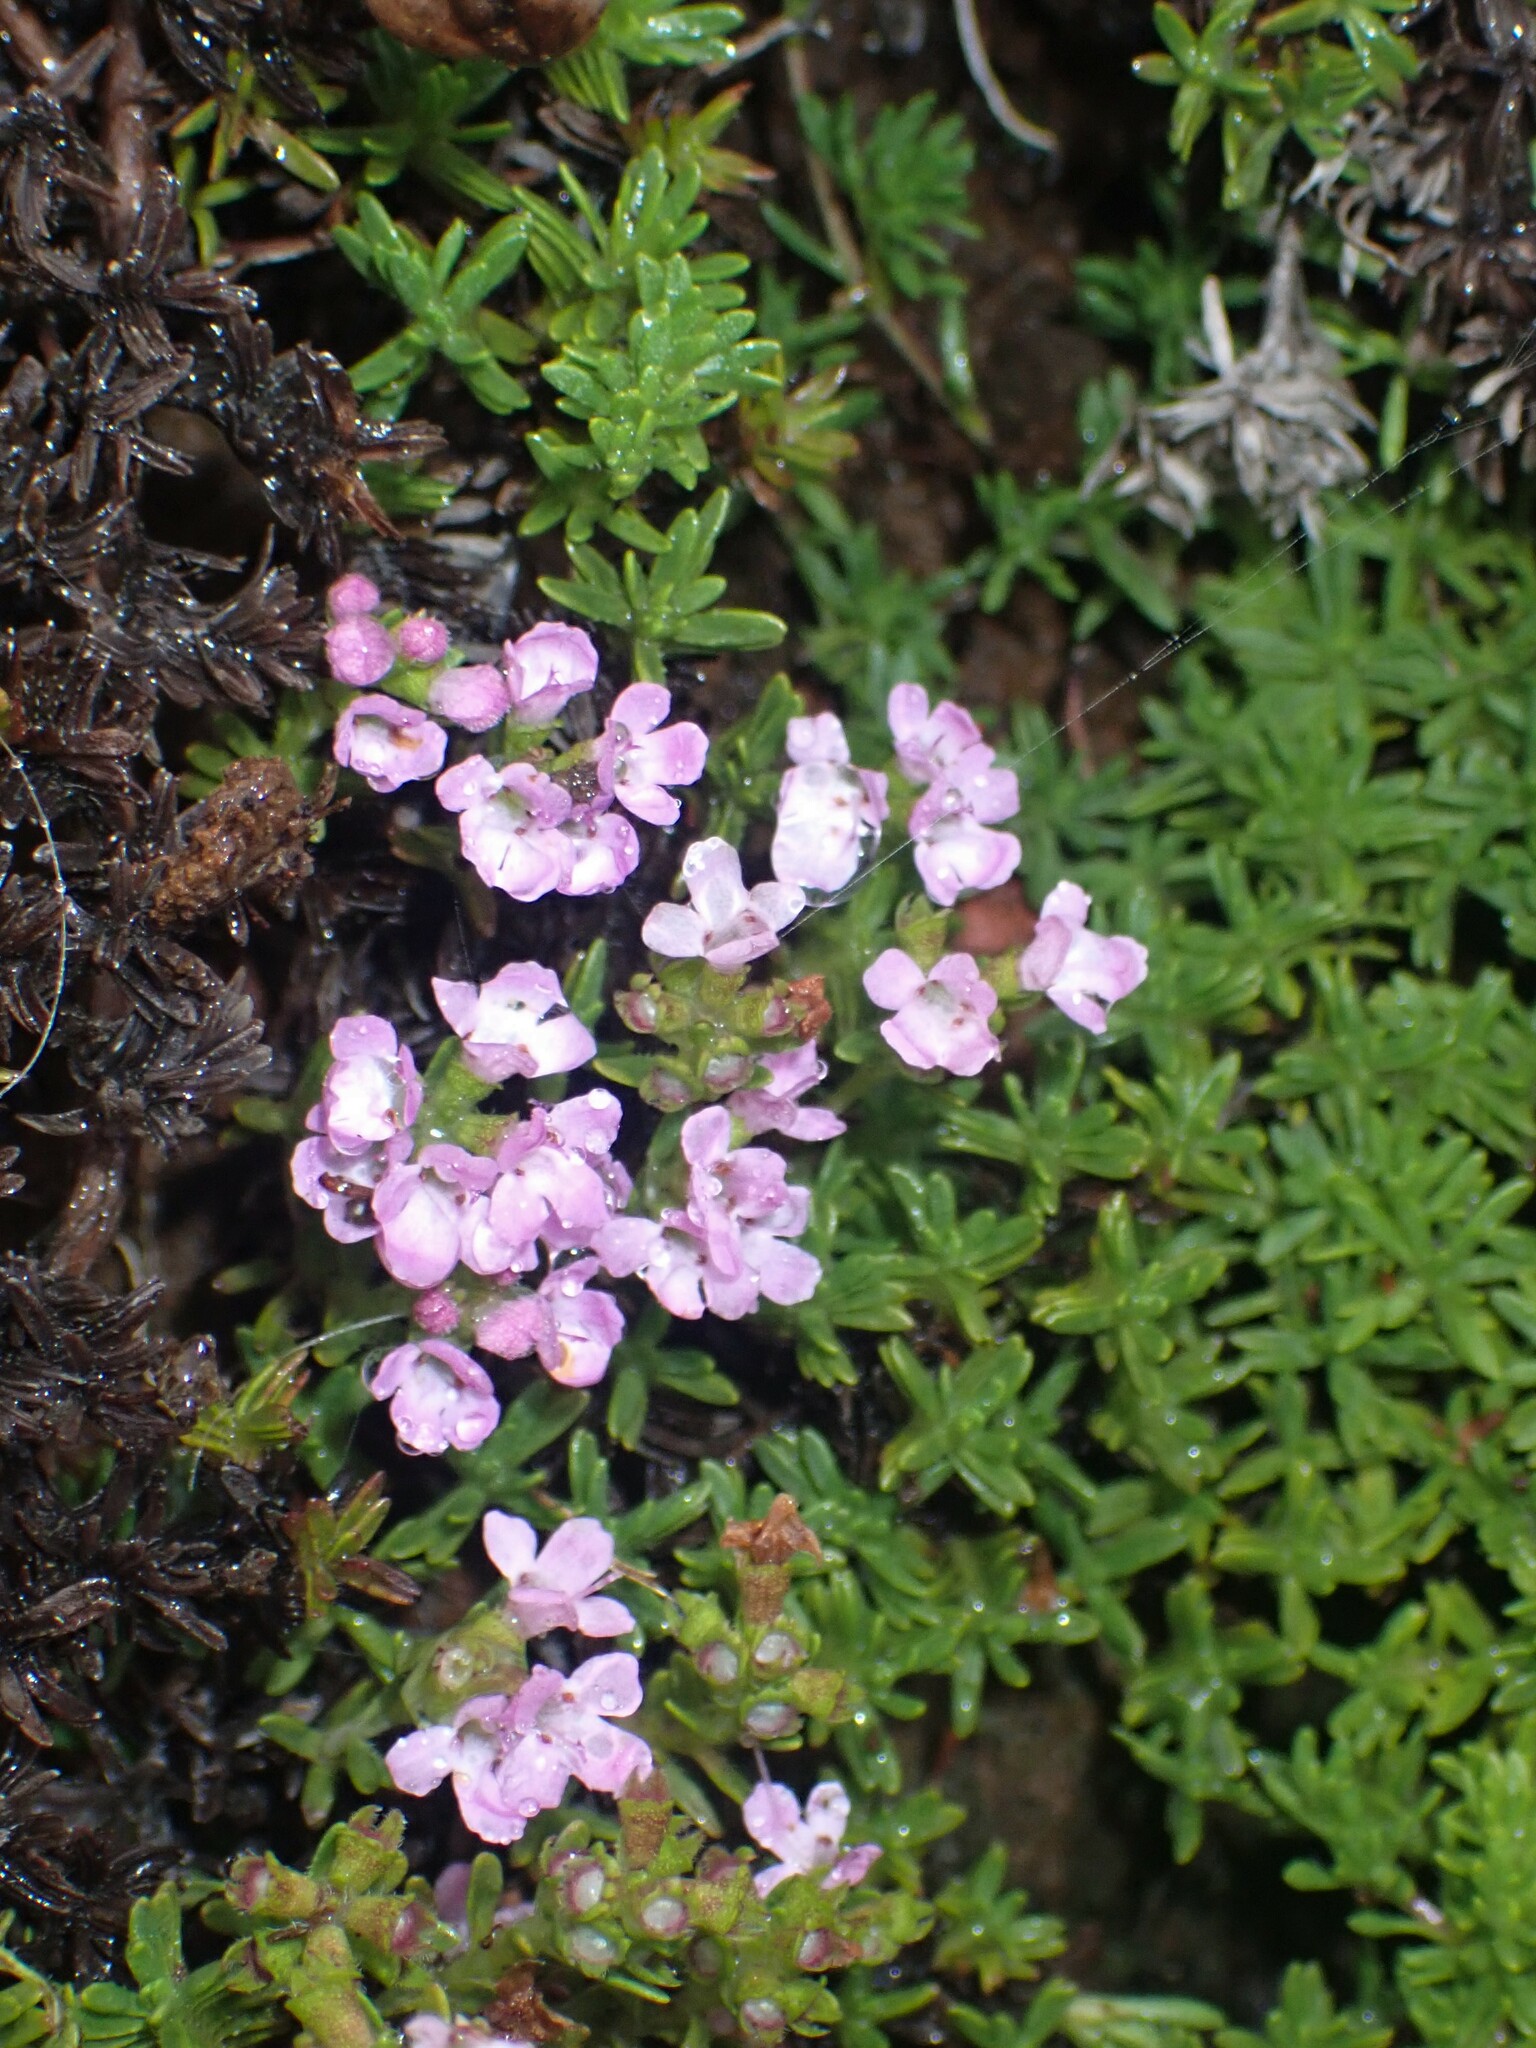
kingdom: Plantae
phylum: Tracheophyta
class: Magnoliopsida
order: Lamiales
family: Lamiaceae
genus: Thymus
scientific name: Thymus caespititius
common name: Azores thyme
